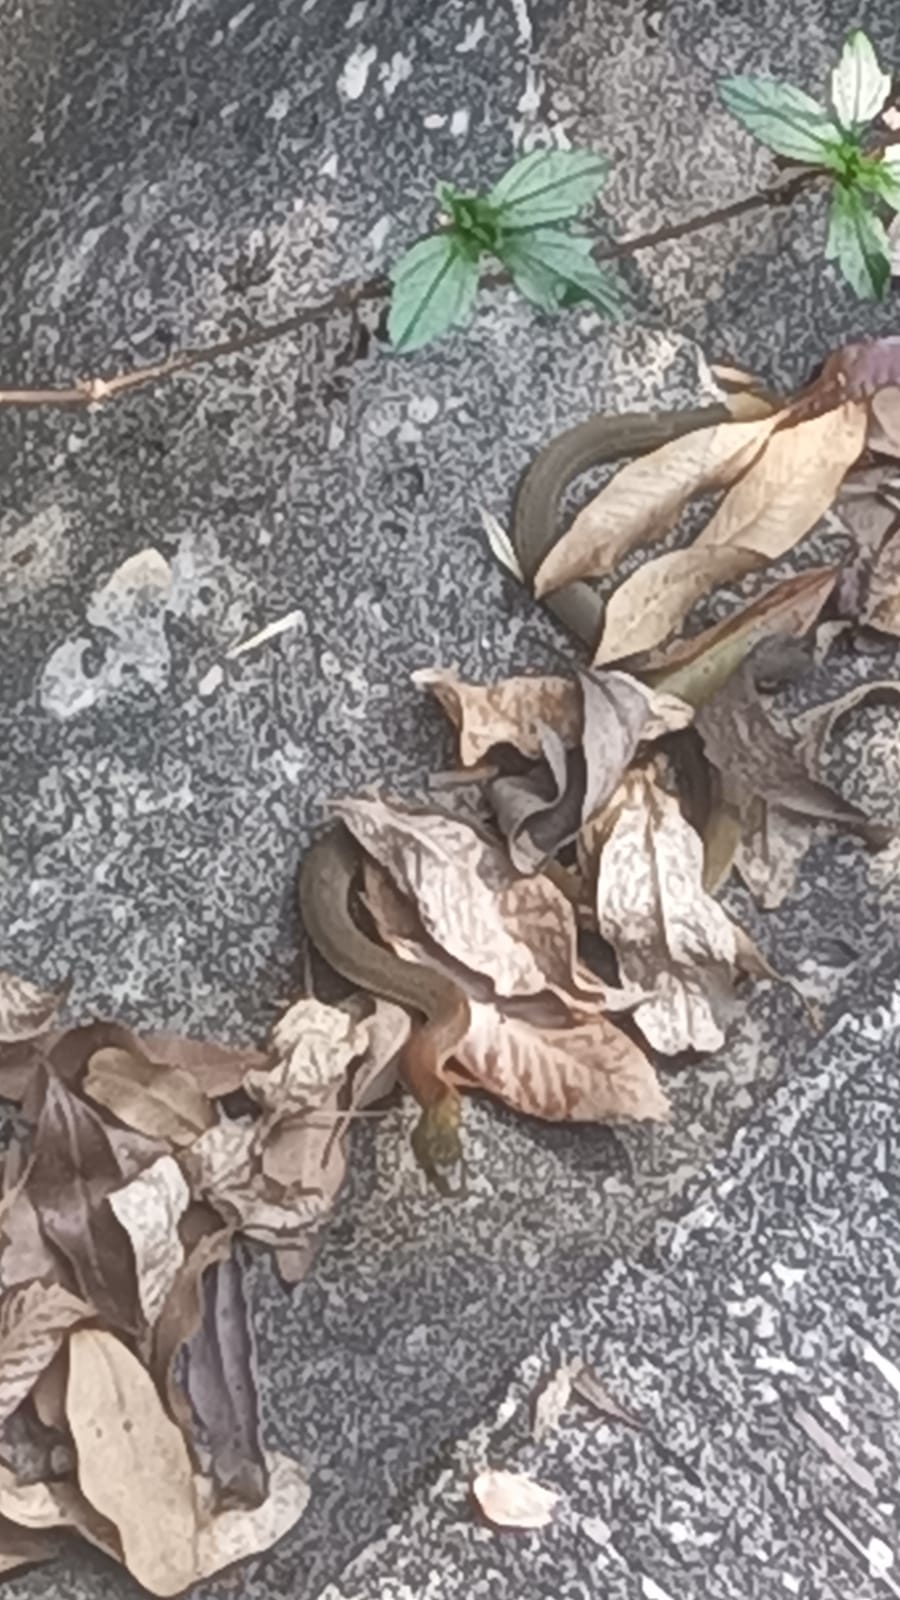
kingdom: Animalia
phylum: Chordata
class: Squamata
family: Colubridae
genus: Rhabdophis
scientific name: Rhabdophis helleri
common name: Heller’s red-necked keelback
